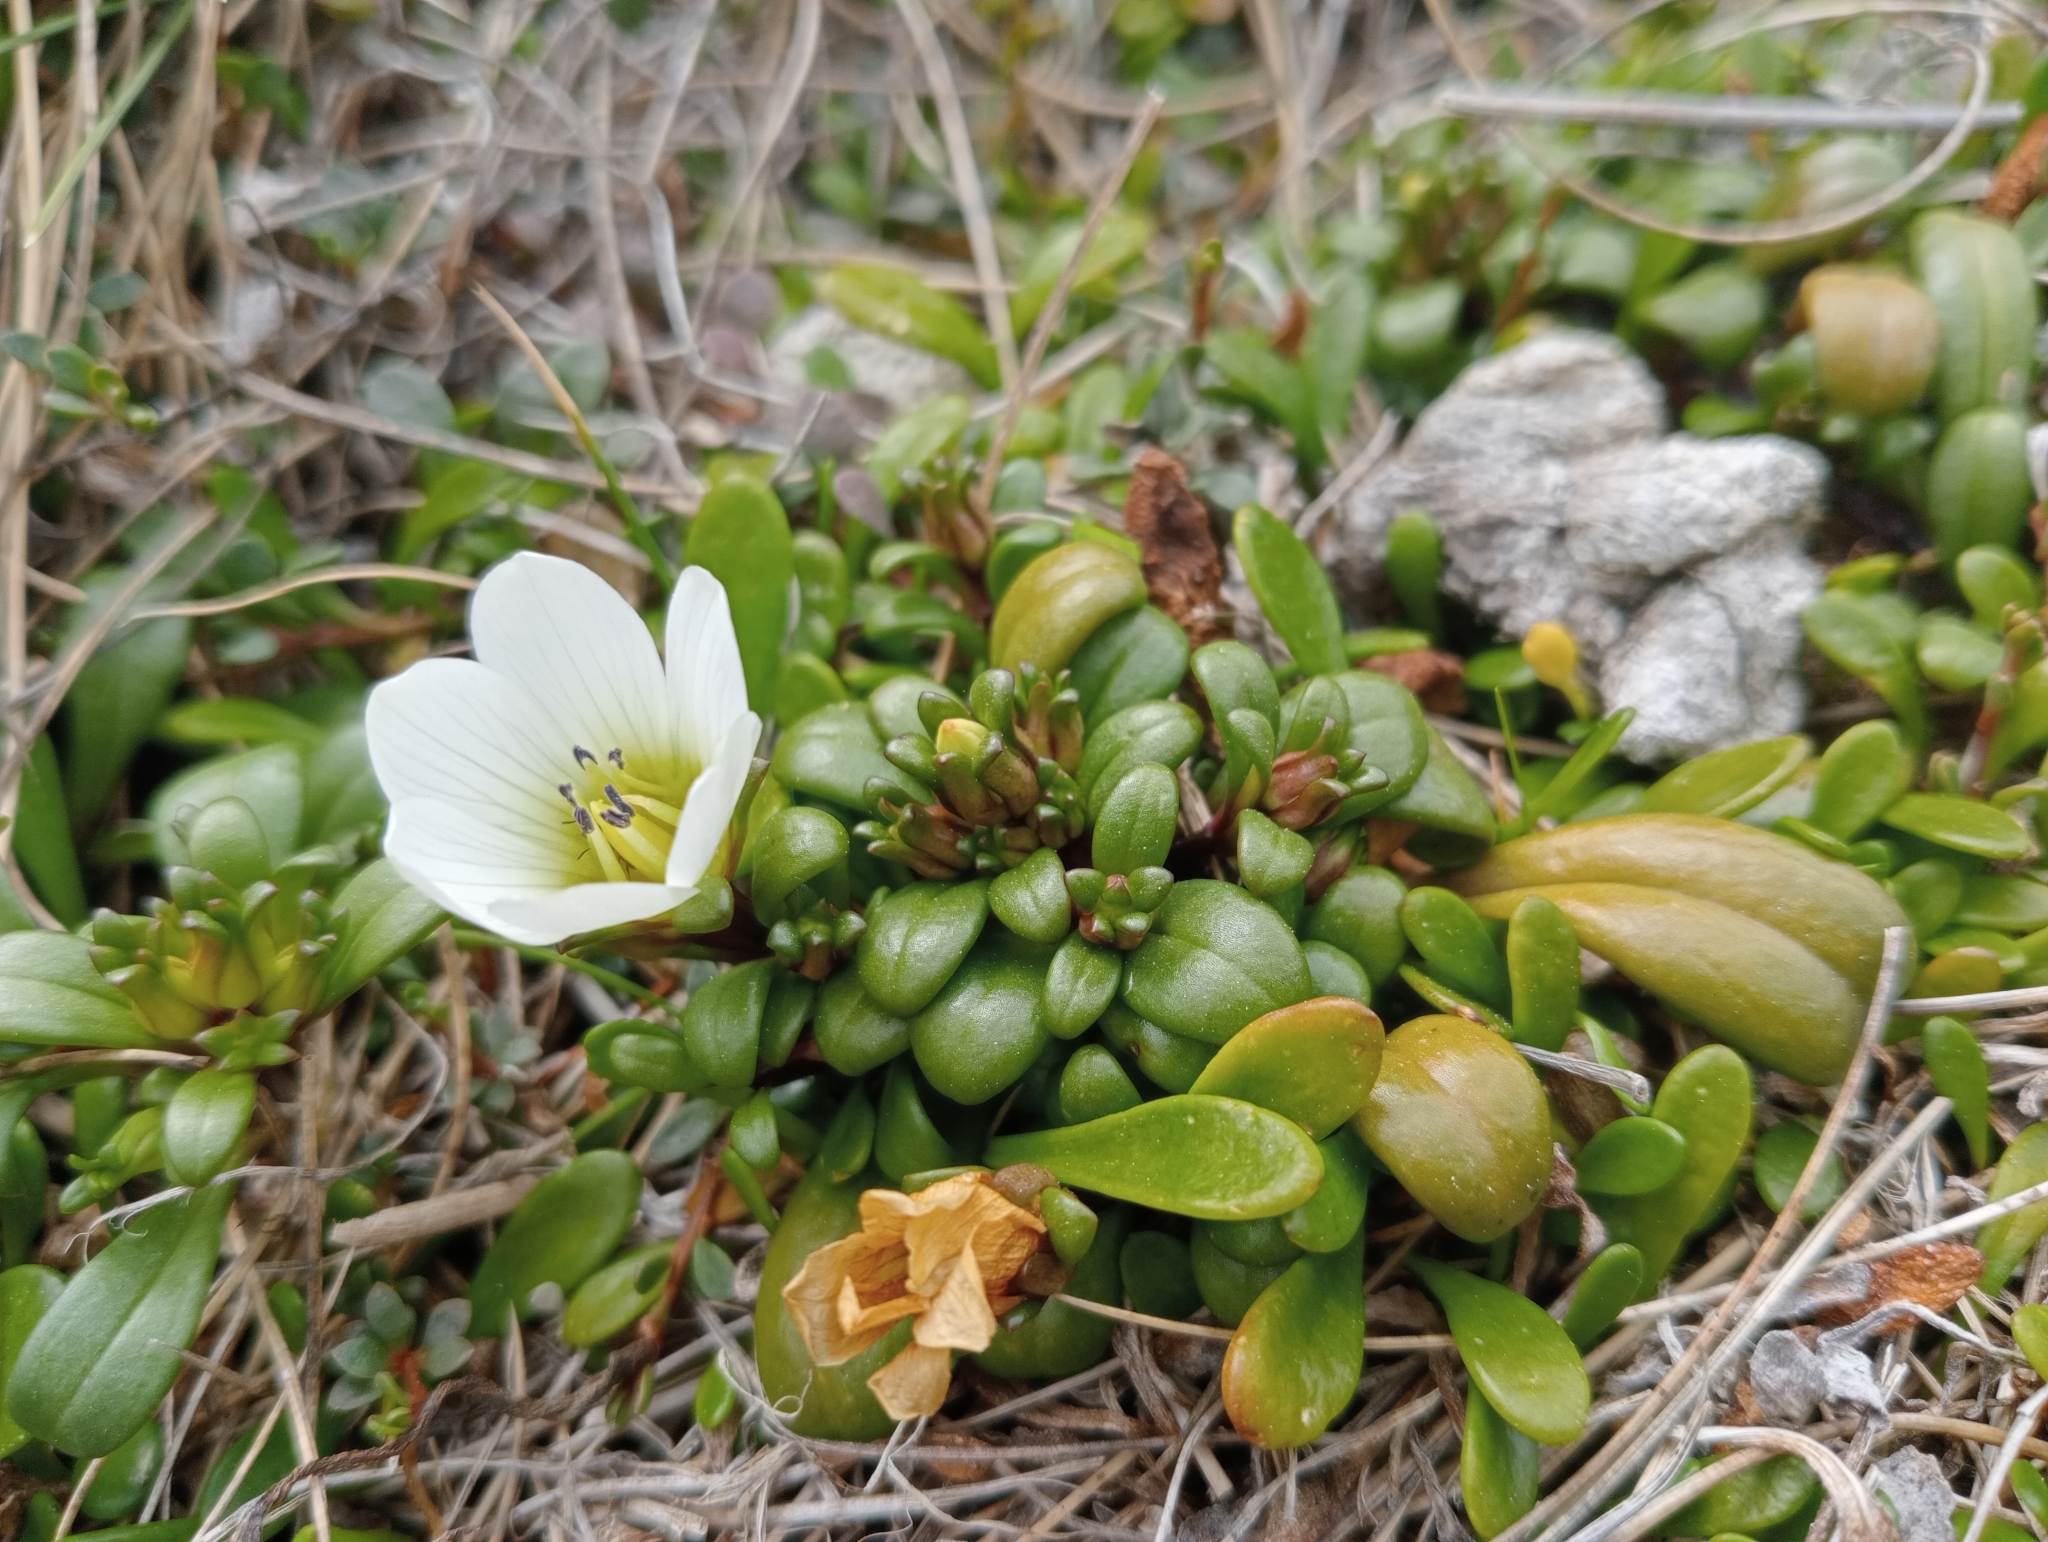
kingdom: Plantae
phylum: Tracheophyta
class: Magnoliopsida
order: Gentianales
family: Gentianaceae
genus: Gentianella
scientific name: Gentianella saxosa
